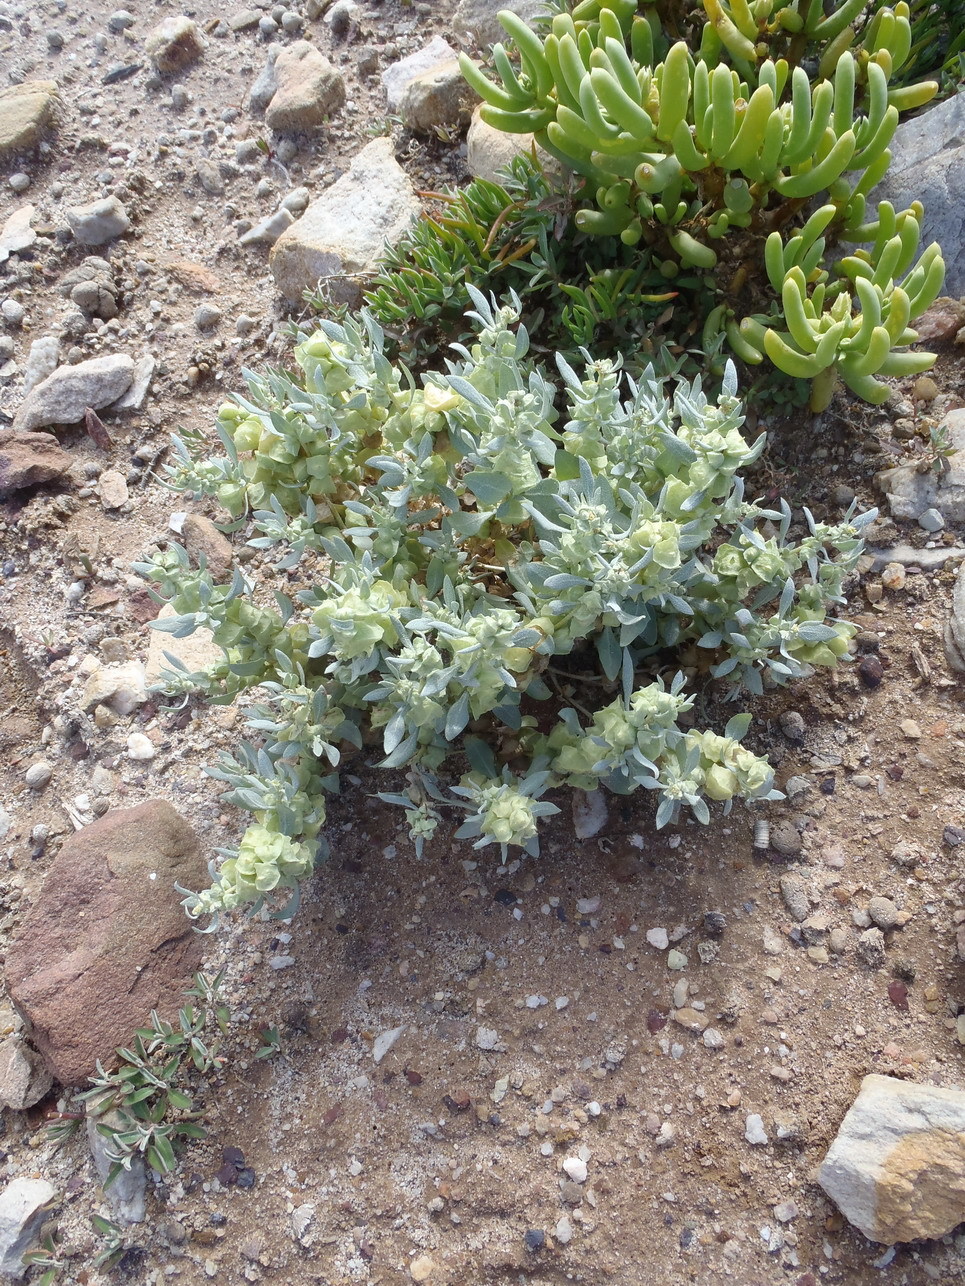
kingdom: Plantae
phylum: Tracheophyta
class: Magnoliopsida
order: Caryophyllales
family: Amaranthaceae
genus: Atriplex
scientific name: Atriplex lindleyi
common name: Lindley's saltbush
